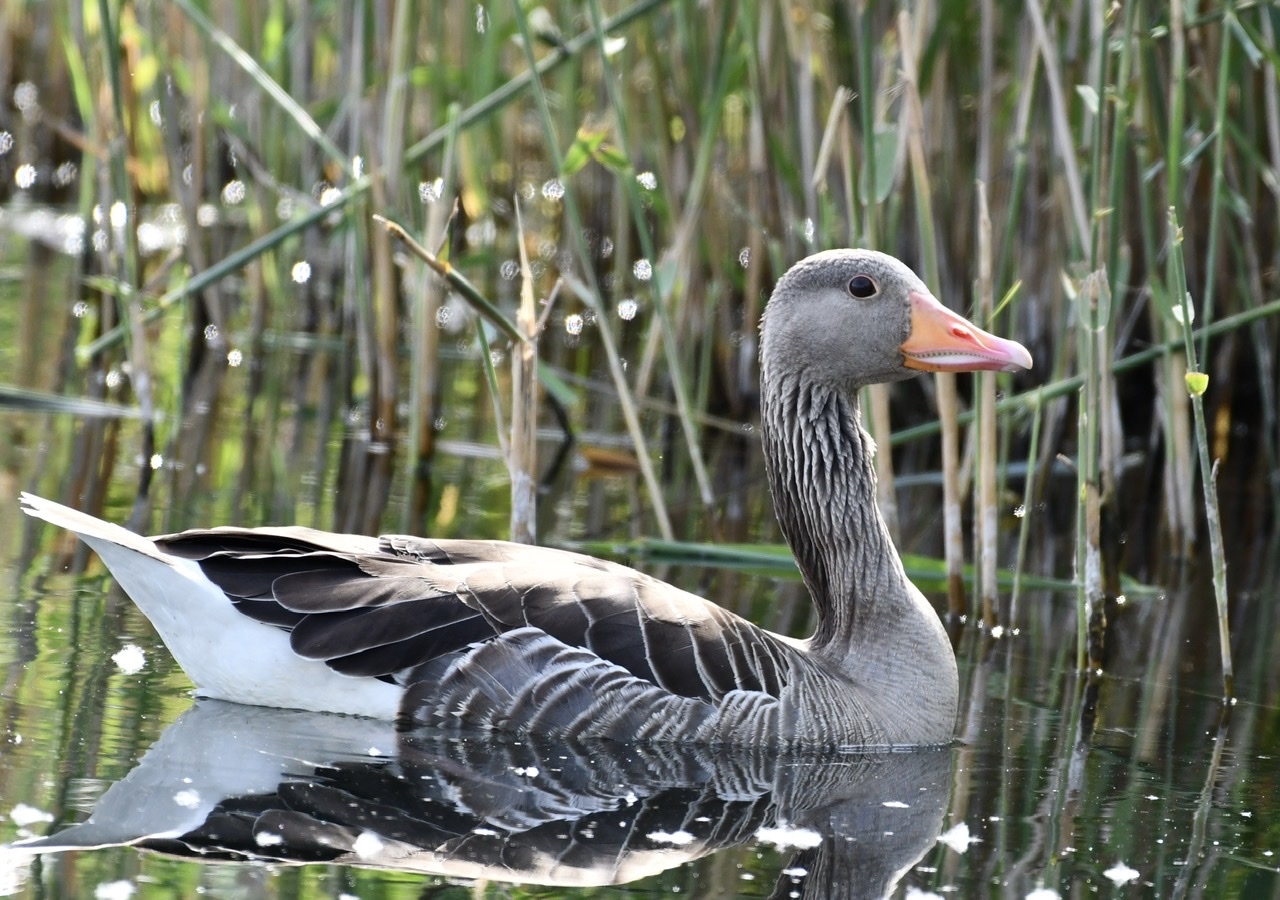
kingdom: Animalia
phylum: Chordata
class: Aves
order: Anseriformes
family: Anatidae
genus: Anser
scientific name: Anser anser
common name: Greylag goose
